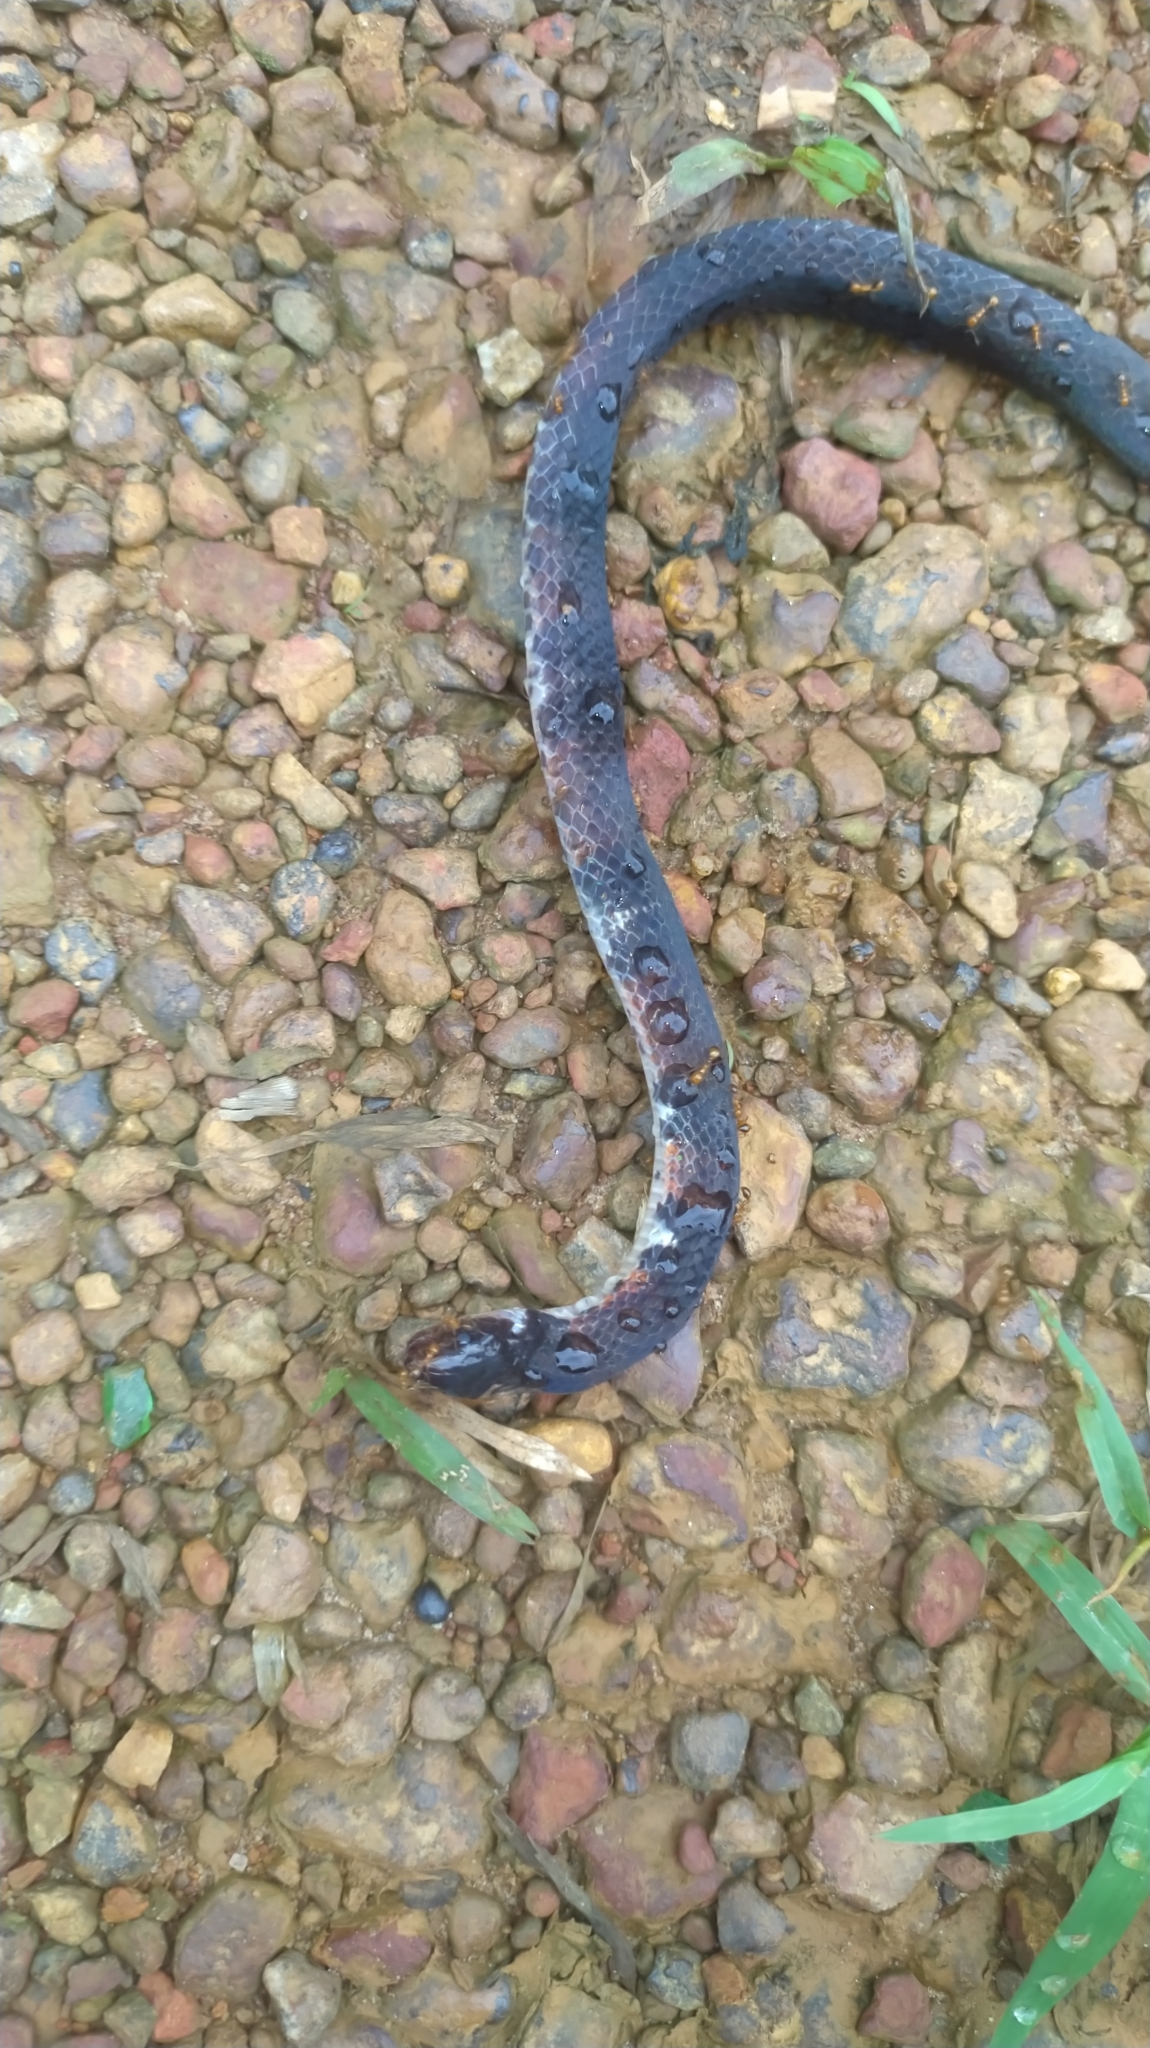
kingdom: Animalia
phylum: Chordata
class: Squamata
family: Colubridae
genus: Atractus
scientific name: Atractus badius
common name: Boie's ground snake
